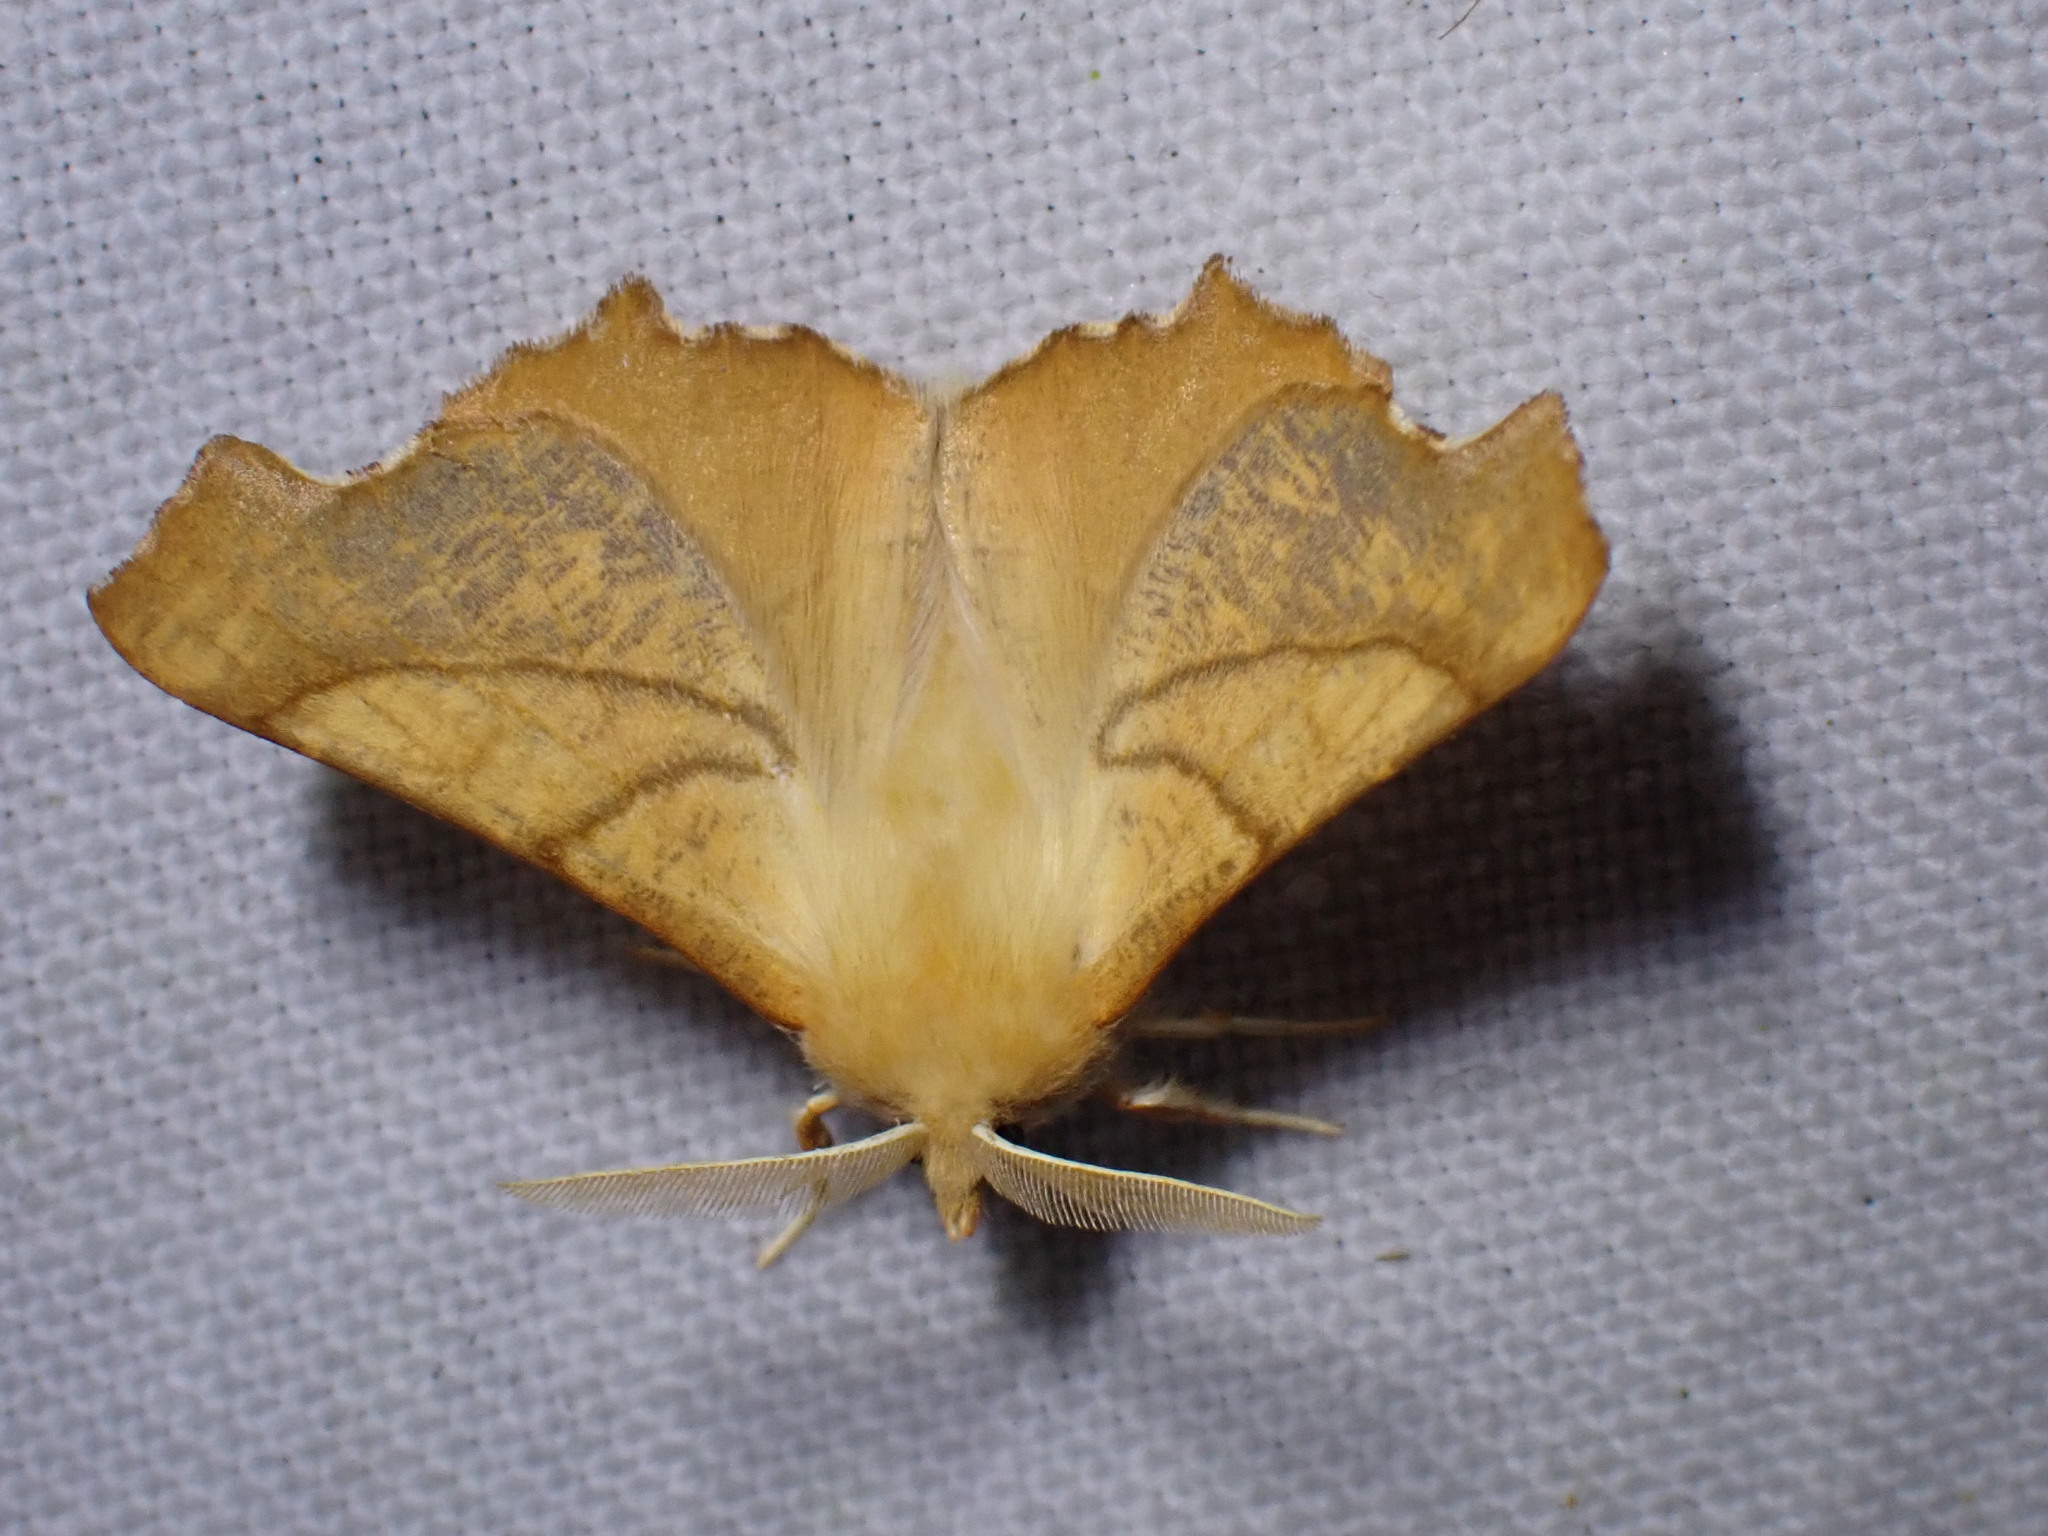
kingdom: Animalia
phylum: Arthropoda
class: Insecta
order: Lepidoptera
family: Geometridae
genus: Ennomos
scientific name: Ennomos fuscantaria
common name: Dusky thorn
